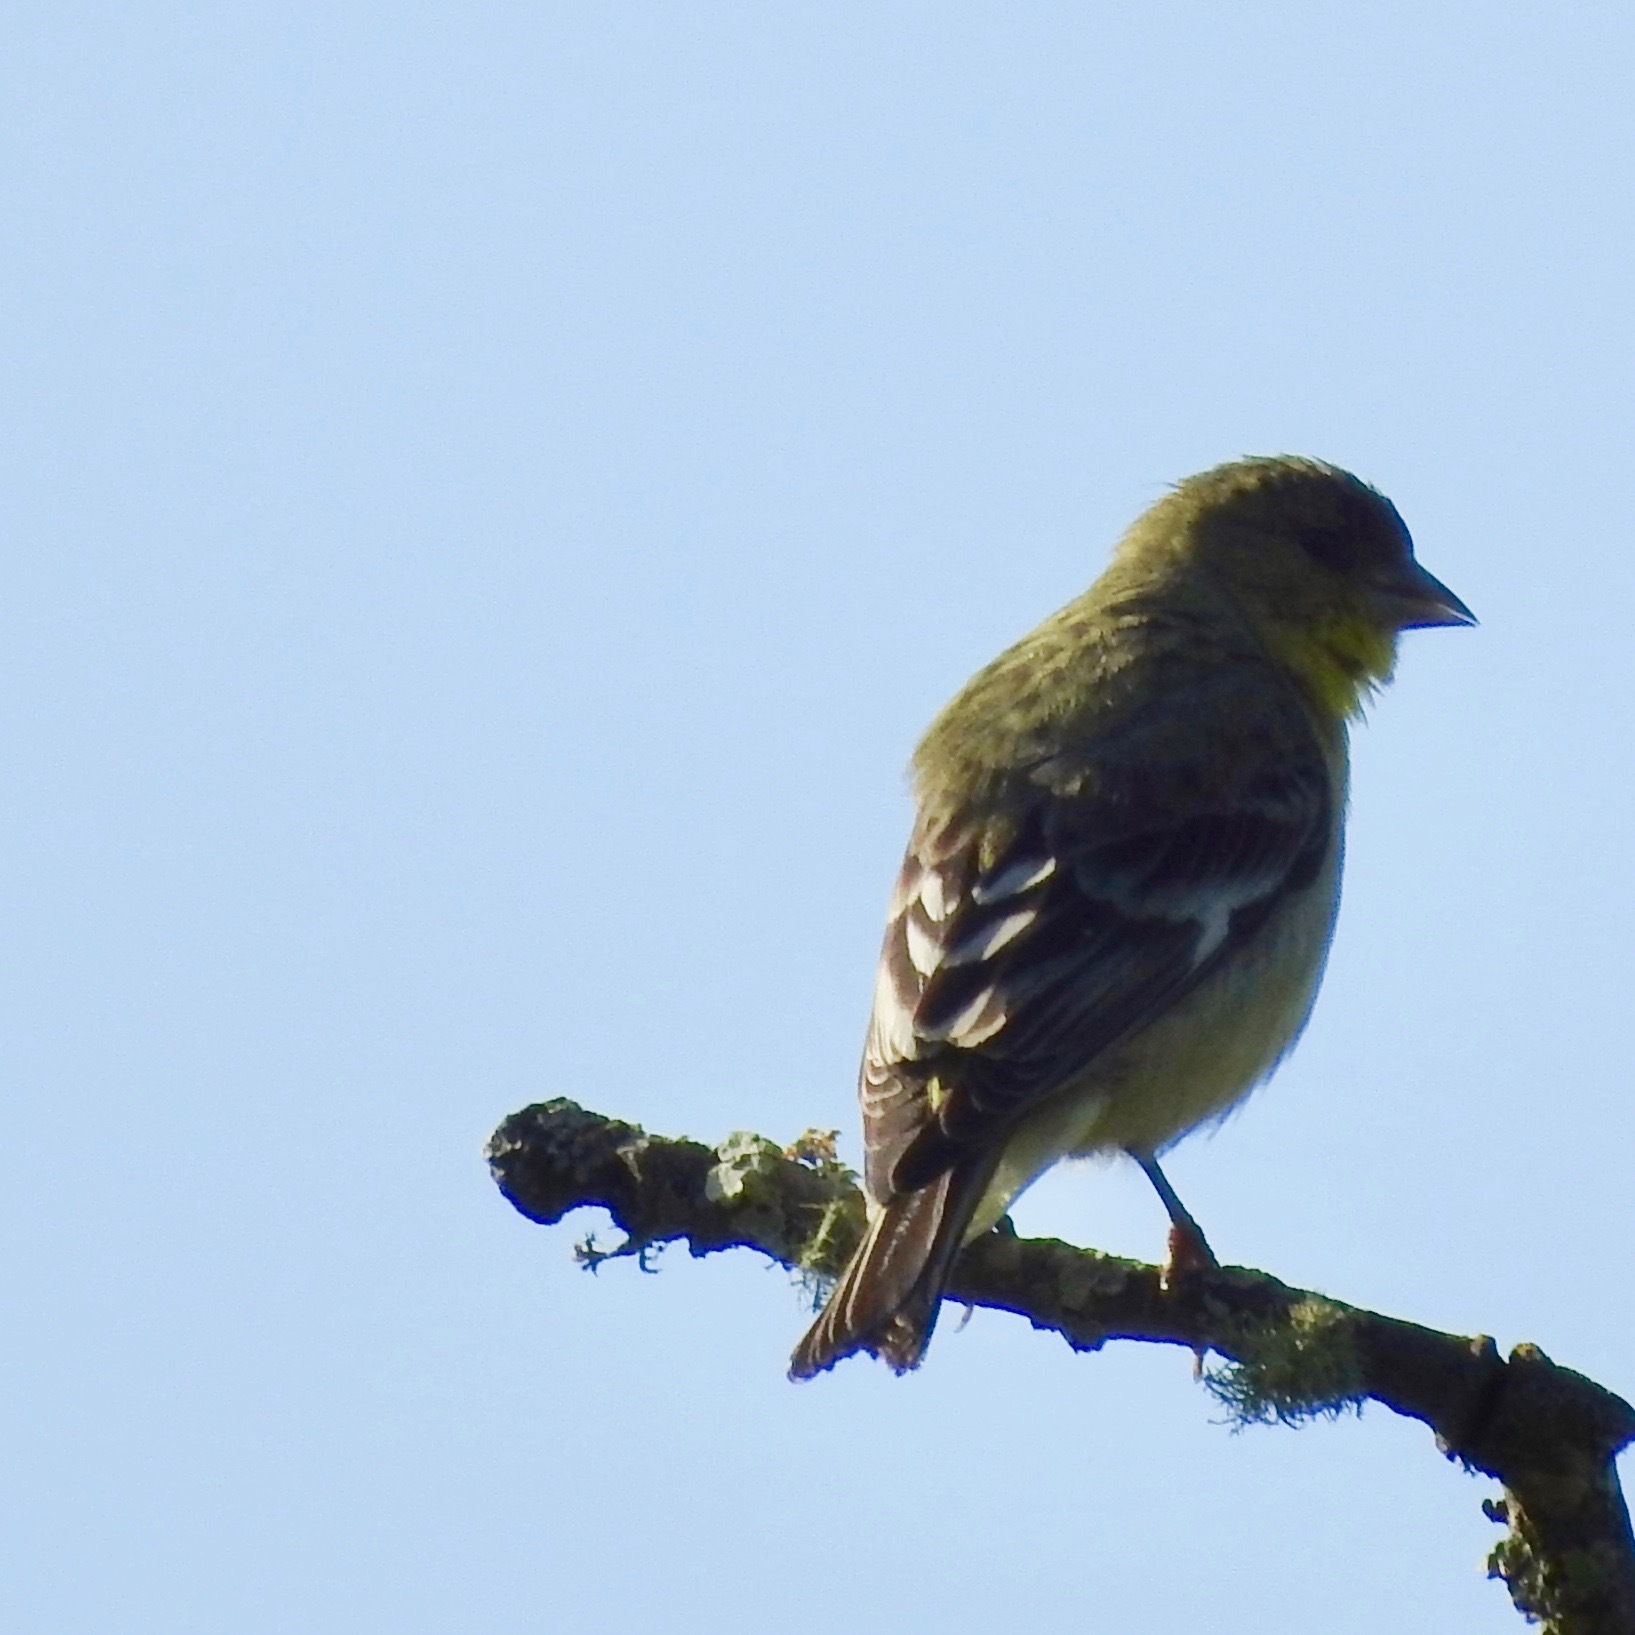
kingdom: Animalia
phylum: Chordata
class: Aves
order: Passeriformes
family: Fringillidae
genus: Spinus
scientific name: Spinus psaltria
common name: Lesser goldfinch
